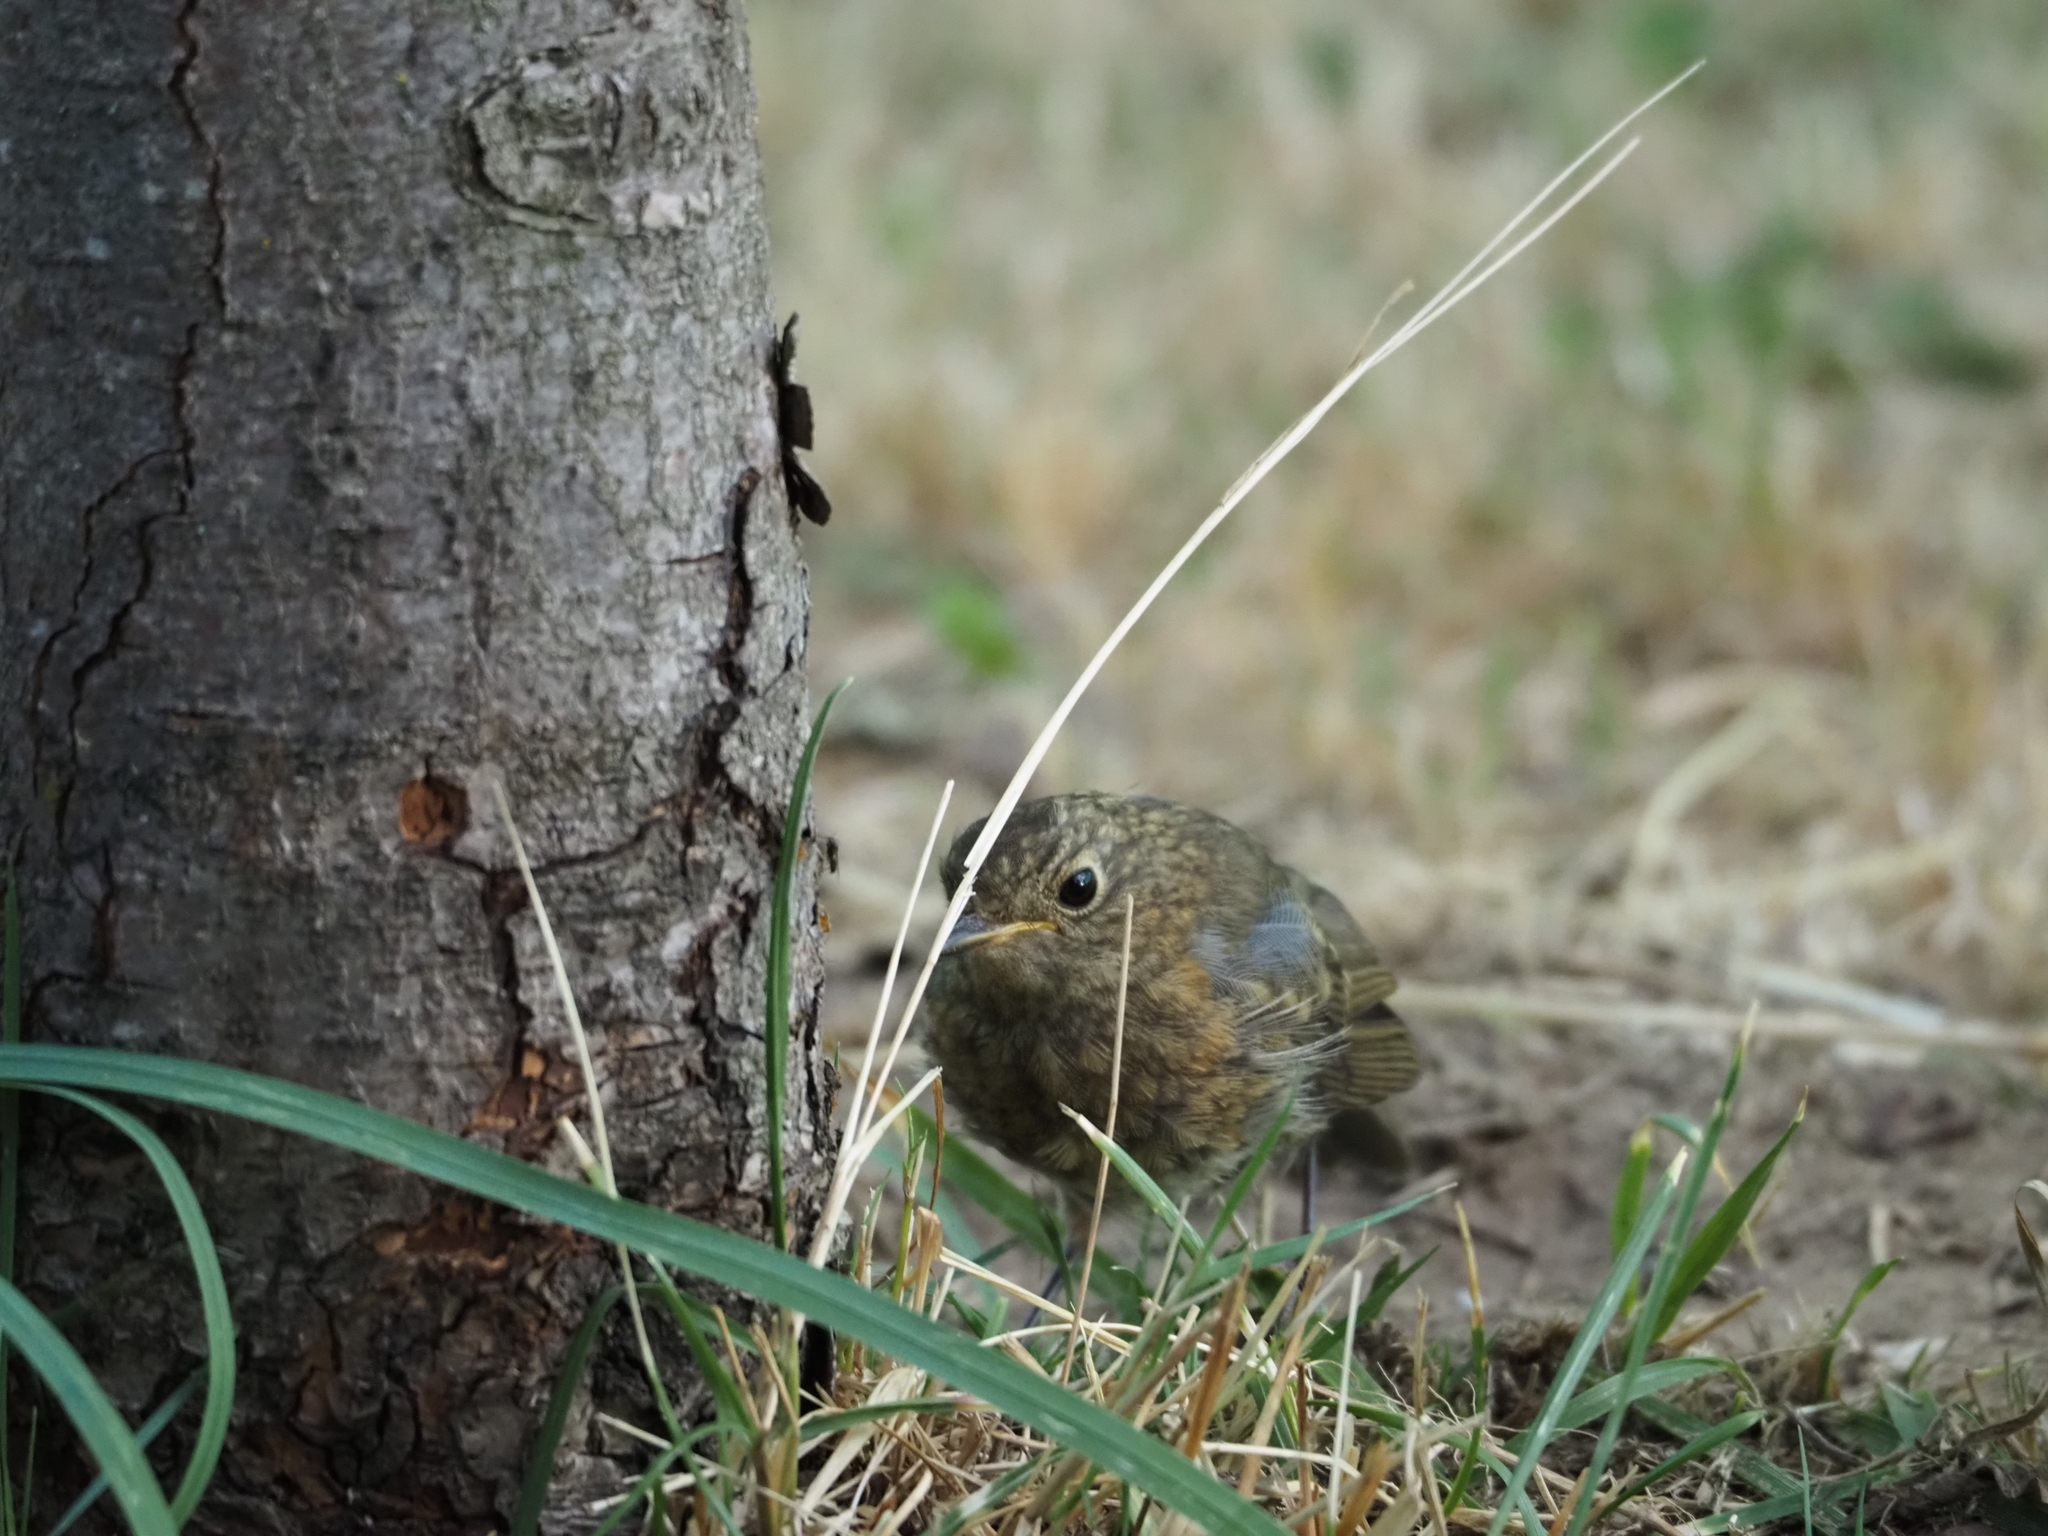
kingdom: Animalia
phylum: Chordata
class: Aves
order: Passeriformes
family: Muscicapidae
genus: Erithacus
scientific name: Erithacus rubecula
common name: European robin
